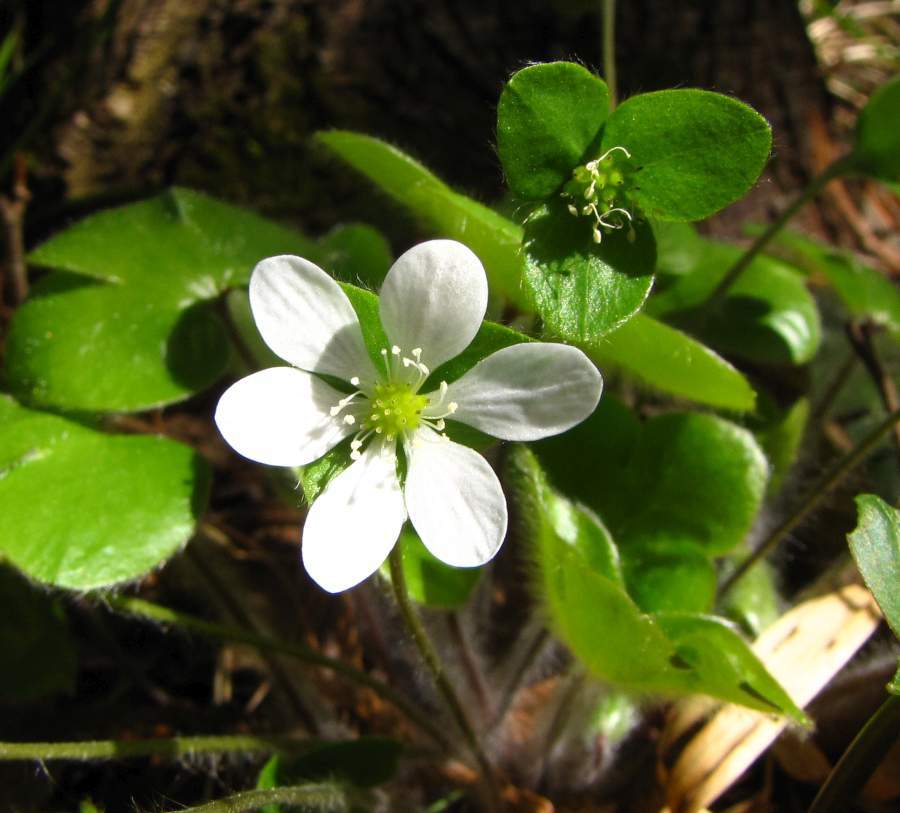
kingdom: Plantae
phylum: Tracheophyta
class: Magnoliopsida
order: Ranunculales
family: Ranunculaceae
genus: Hepatica
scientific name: Hepatica americana
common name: American hepatica
